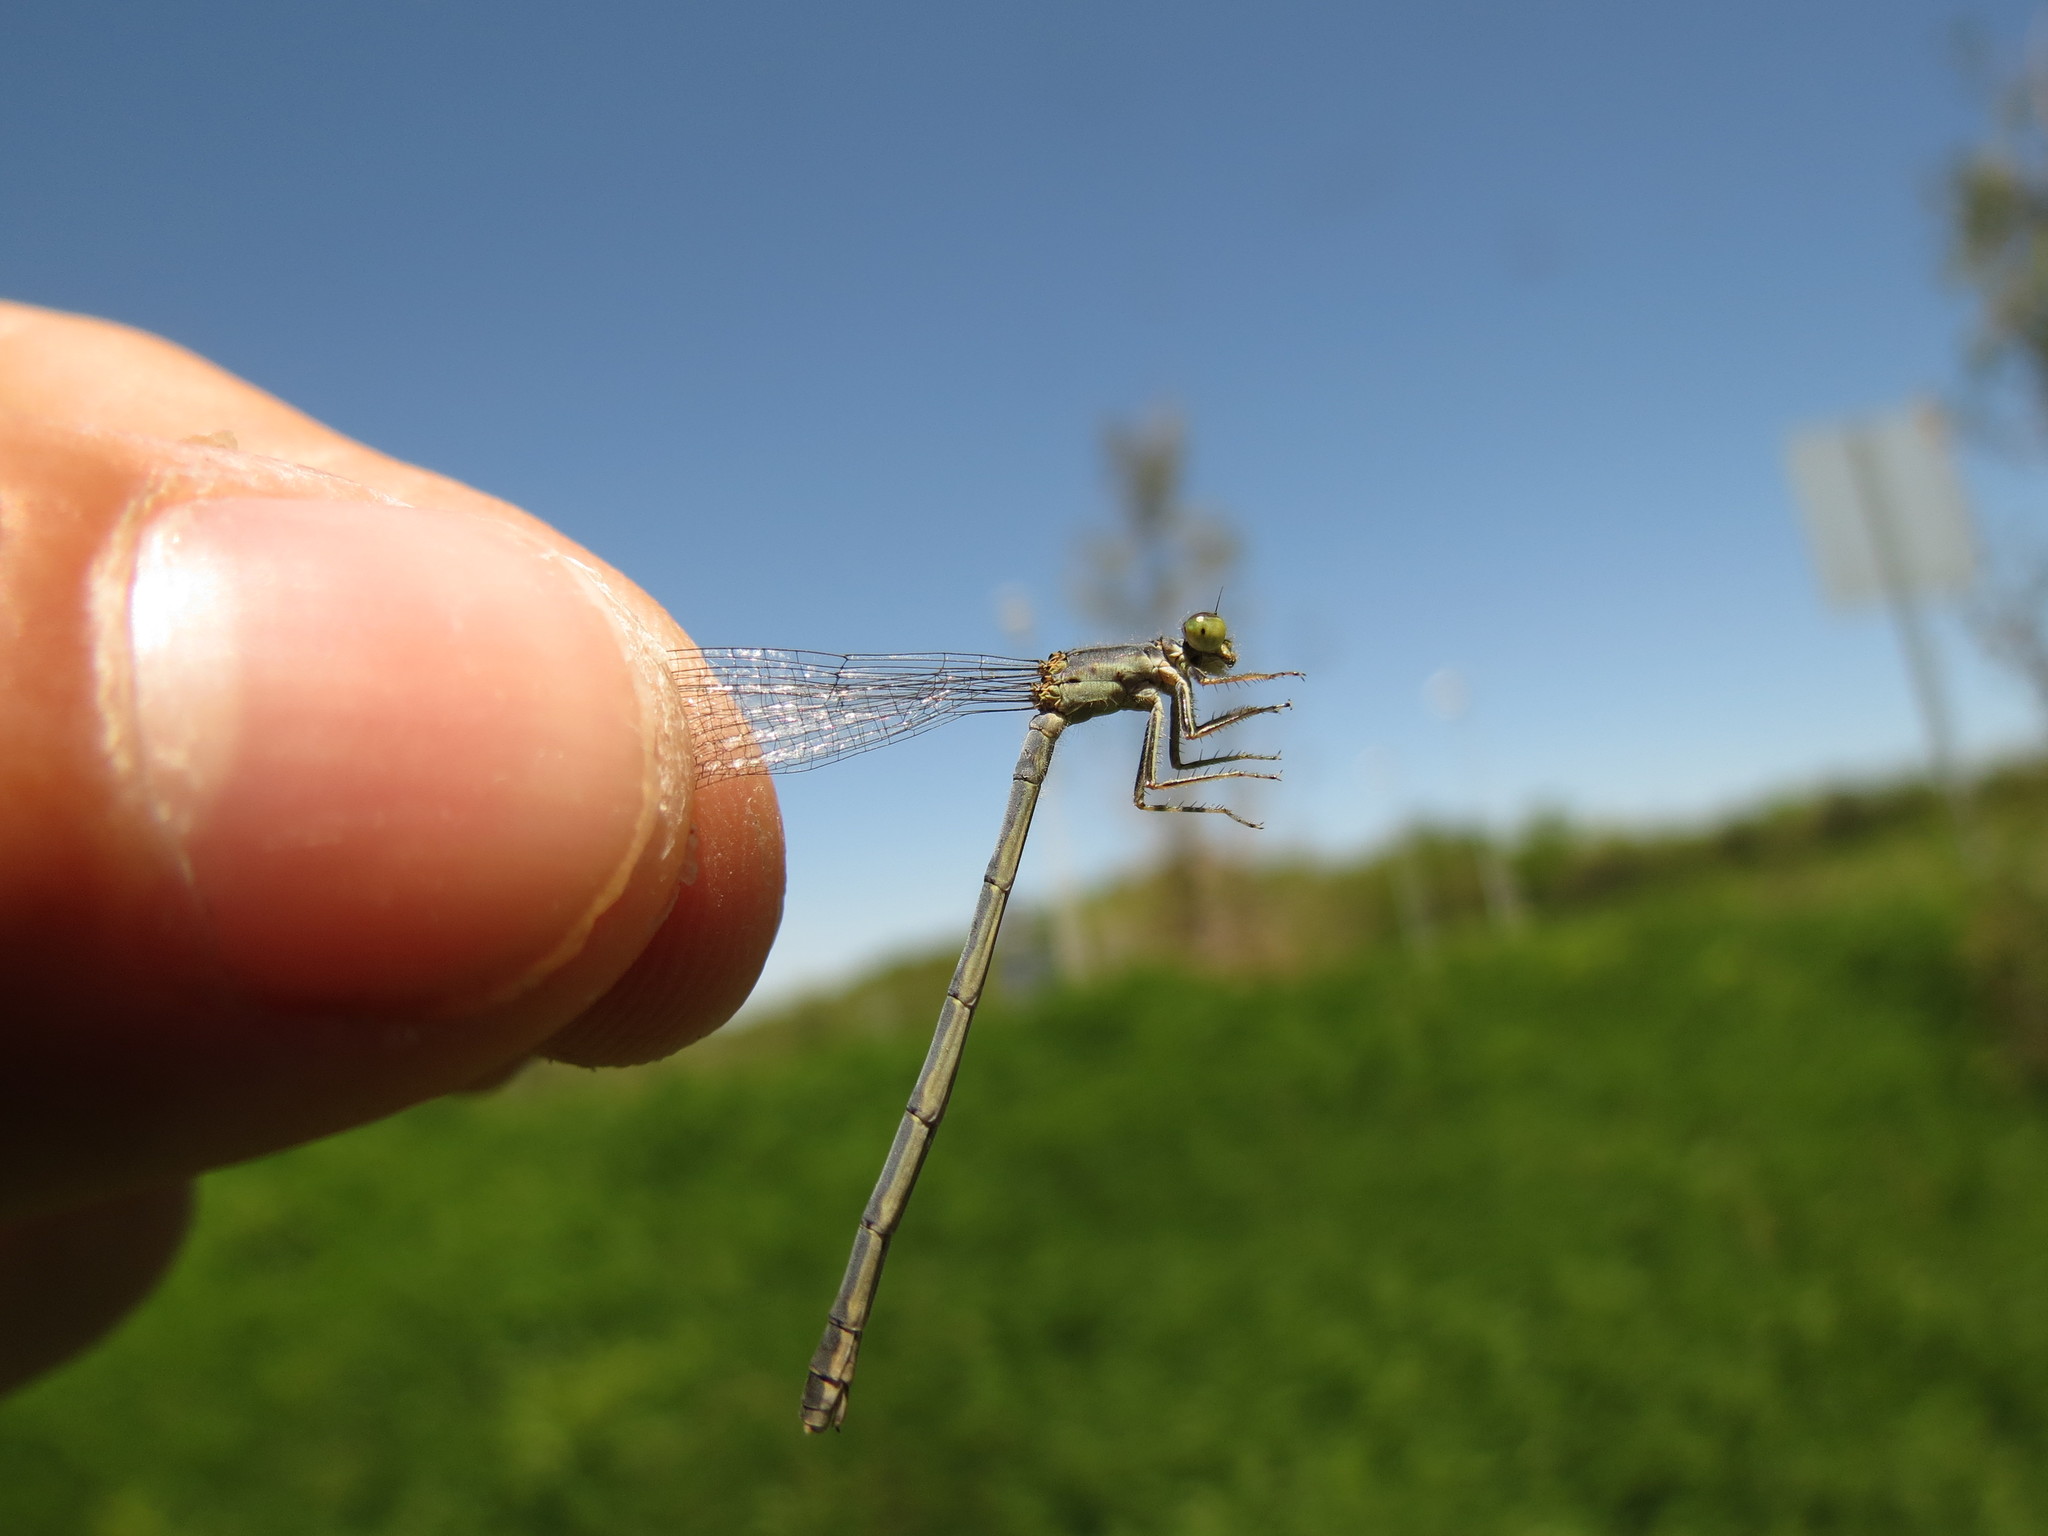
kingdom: Animalia
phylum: Arthropoda
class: Insecta
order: Odonata
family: Coenagrionidae
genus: Ischnura
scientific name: Ischnura verticalis
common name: Eastern forktail
